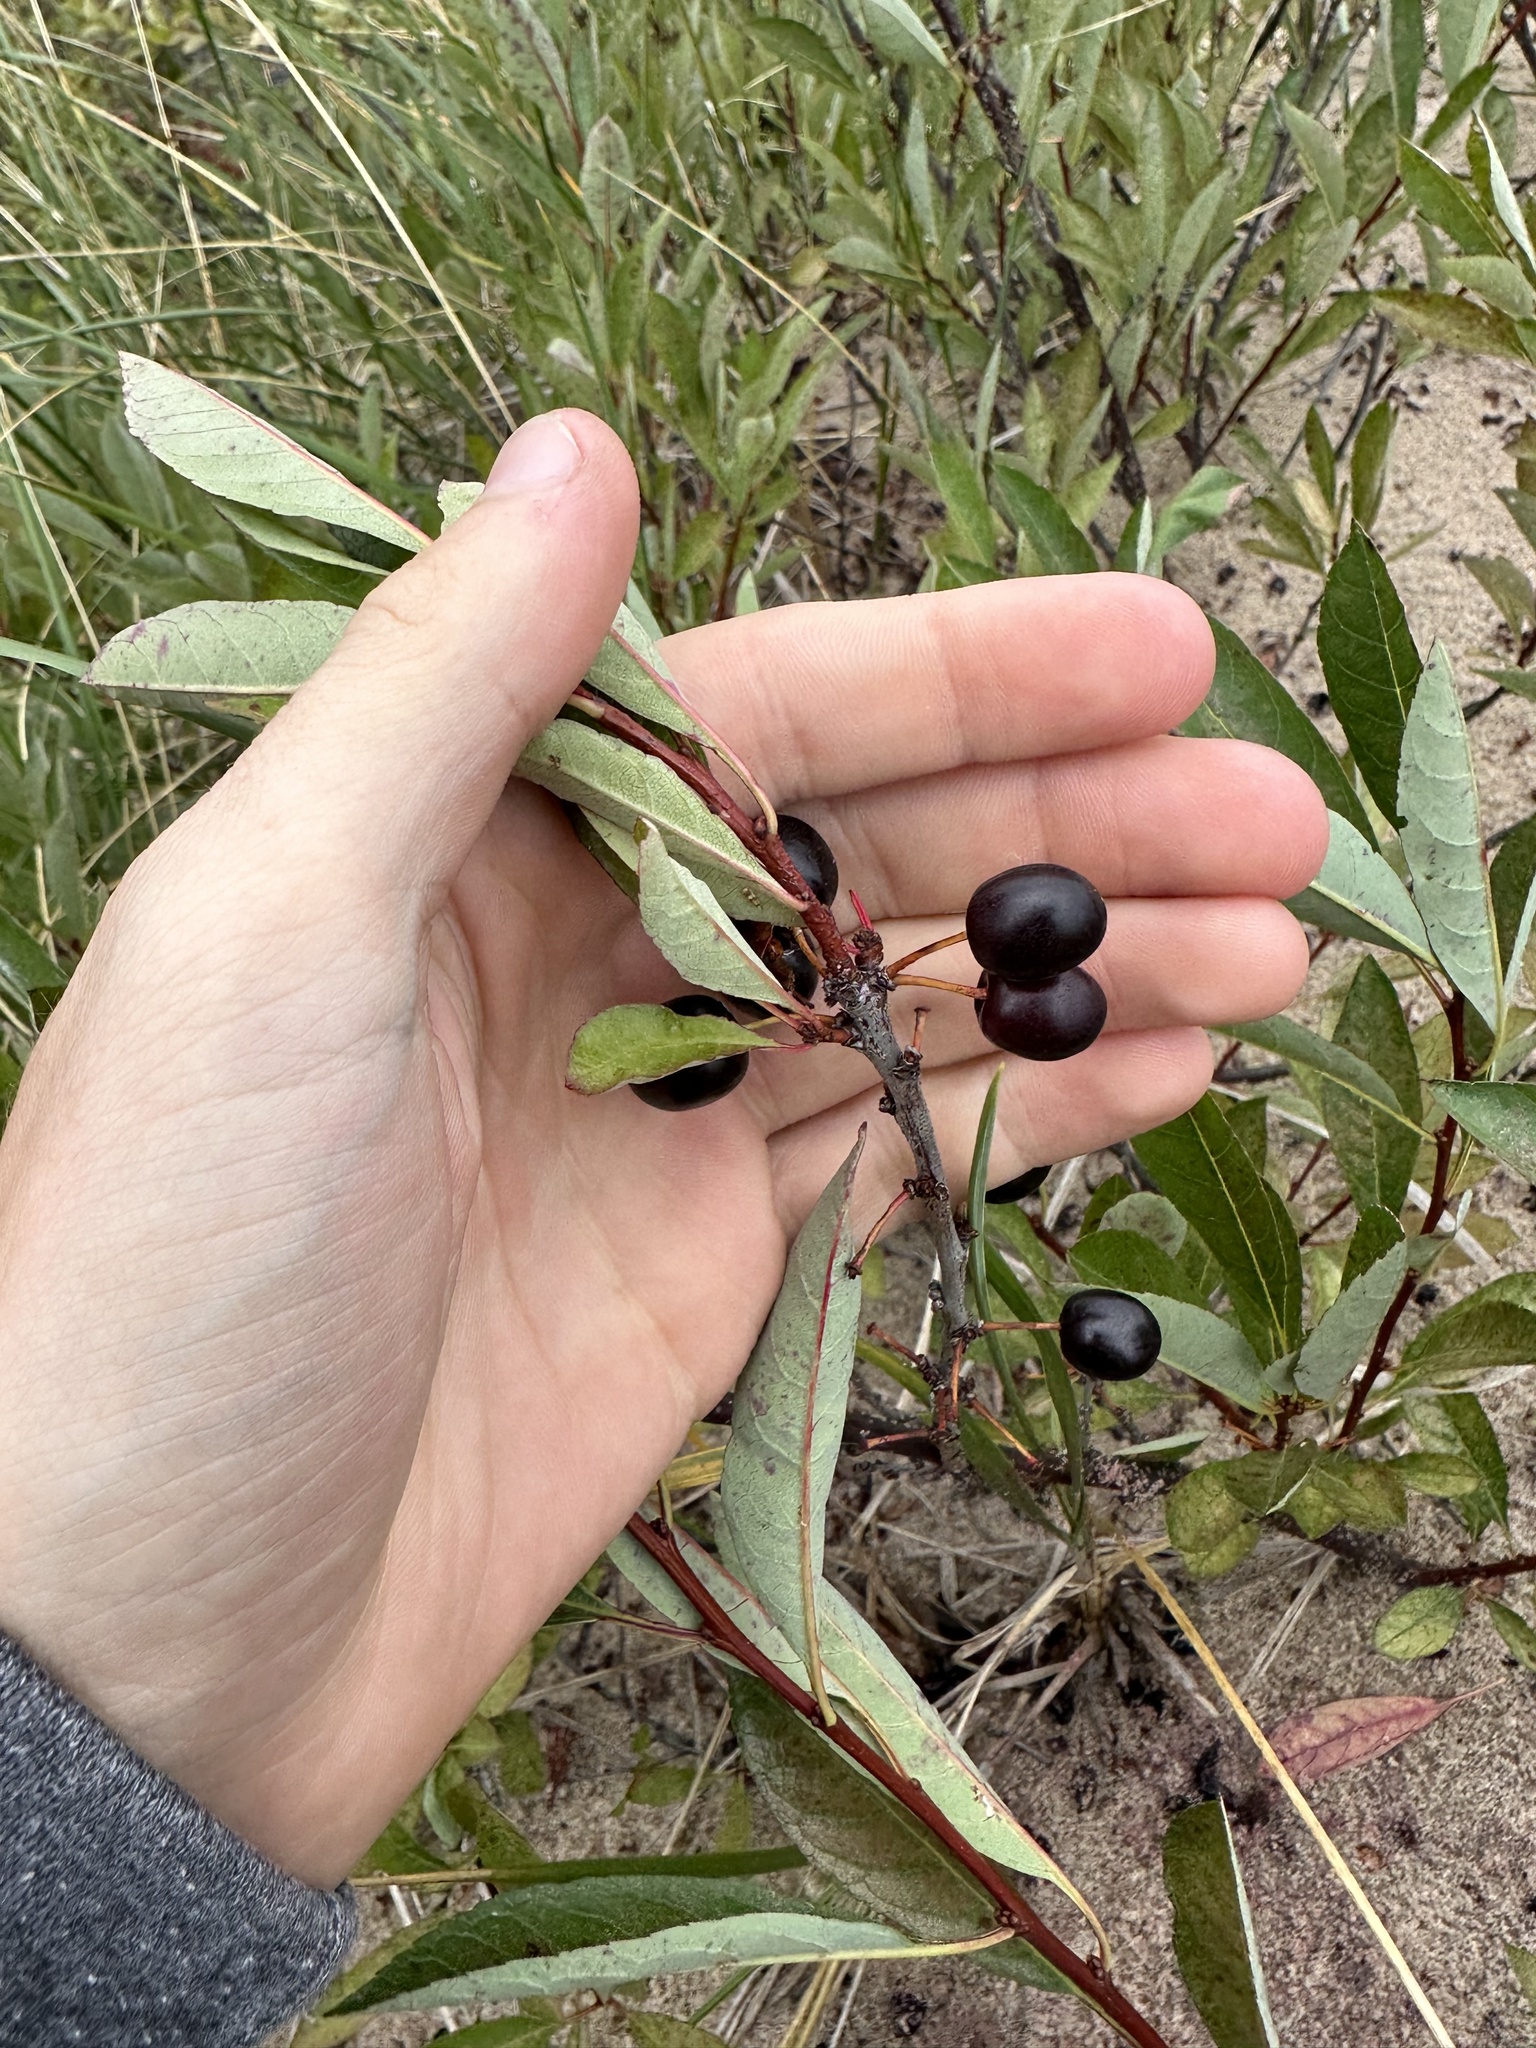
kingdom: Plantae
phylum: Tracheophyta
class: Magnoliopsida
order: Rosales
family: Rosaceae
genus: Prunus
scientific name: Prunus pumila
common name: Dwarf cherry
